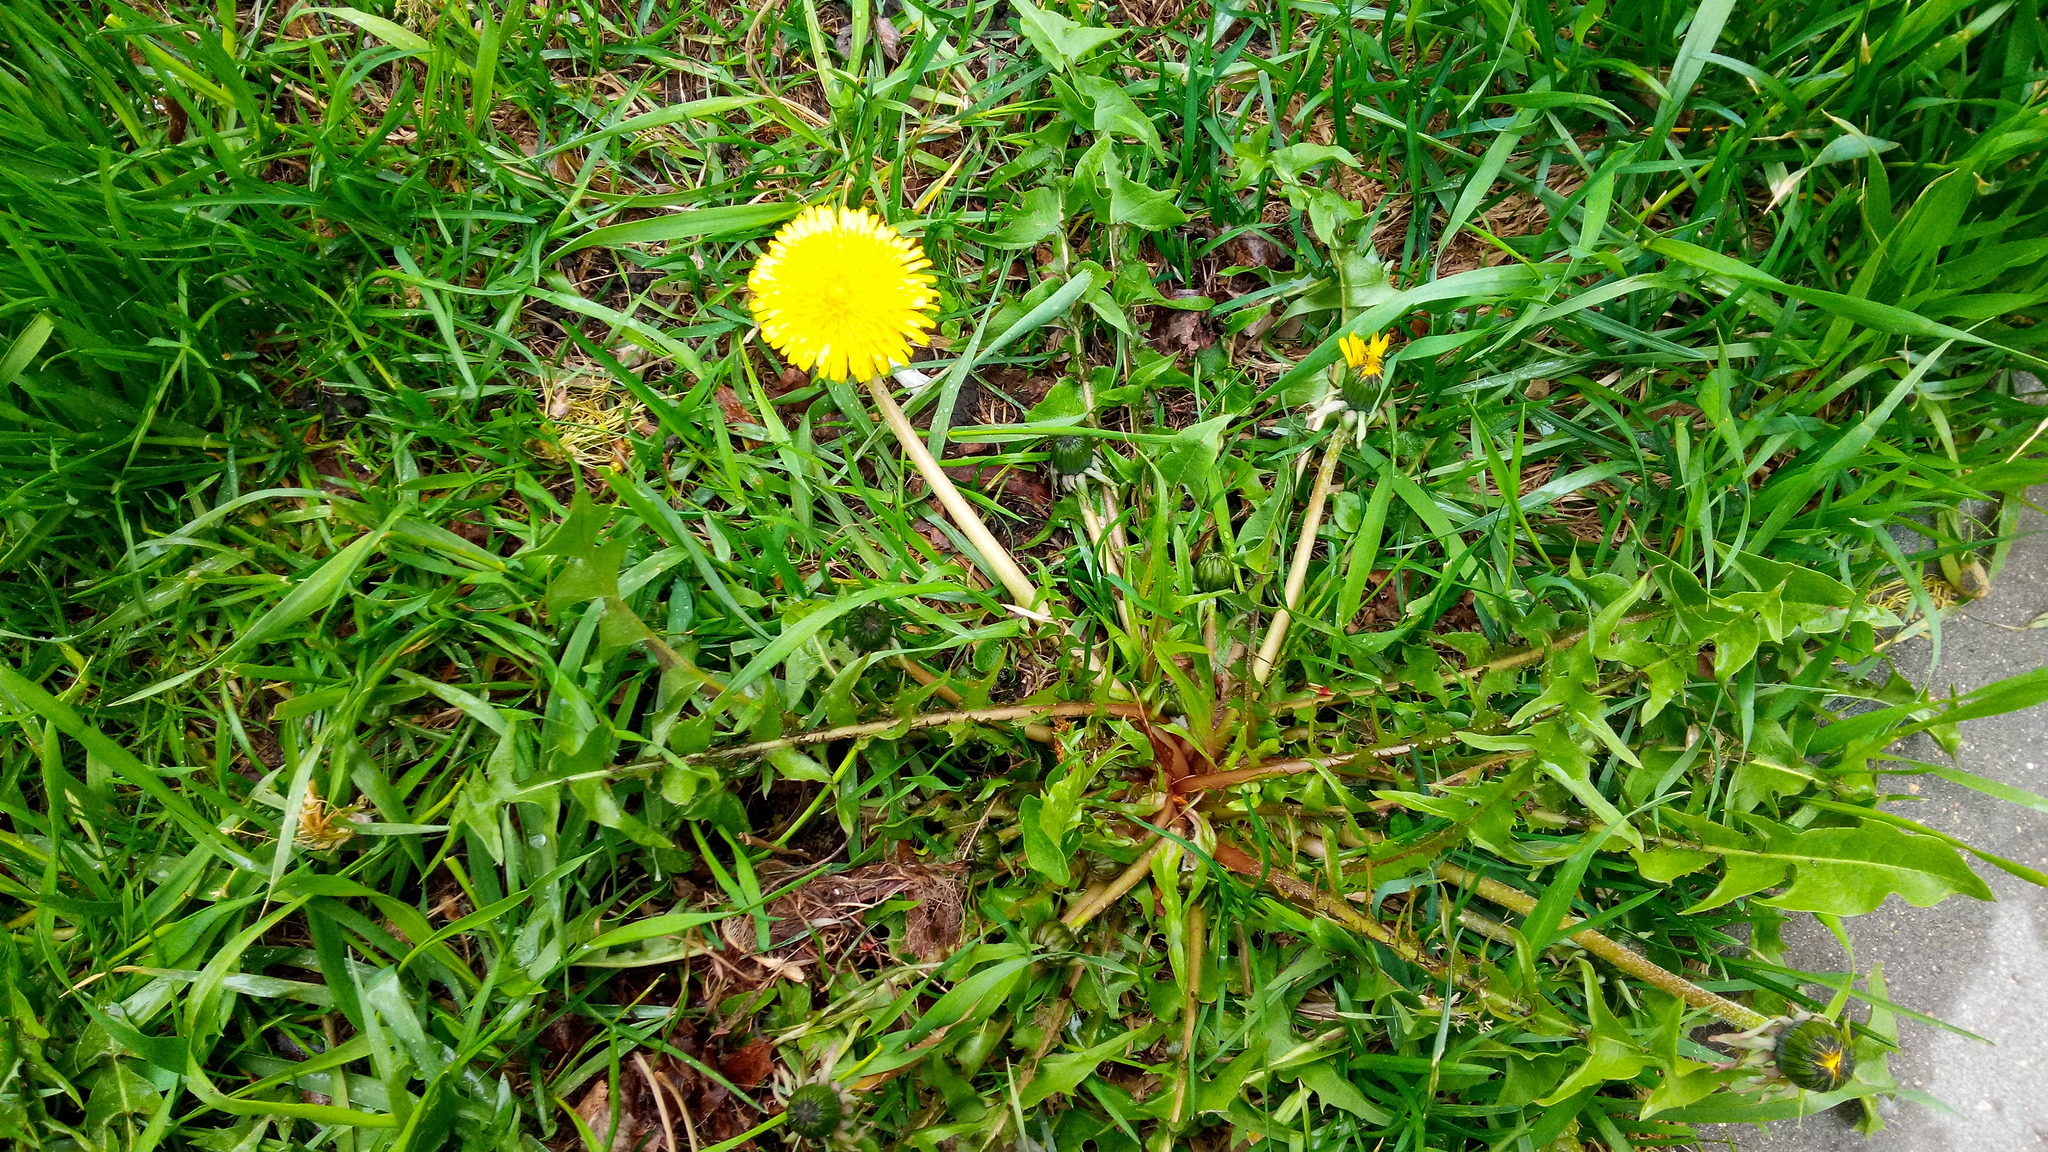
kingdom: Plantae
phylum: Tracheophyta
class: Magnoliopsida
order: Asterales
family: Asteraceae
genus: Taraxacum
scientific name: Taraxacum officinale
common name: Common dandelion
